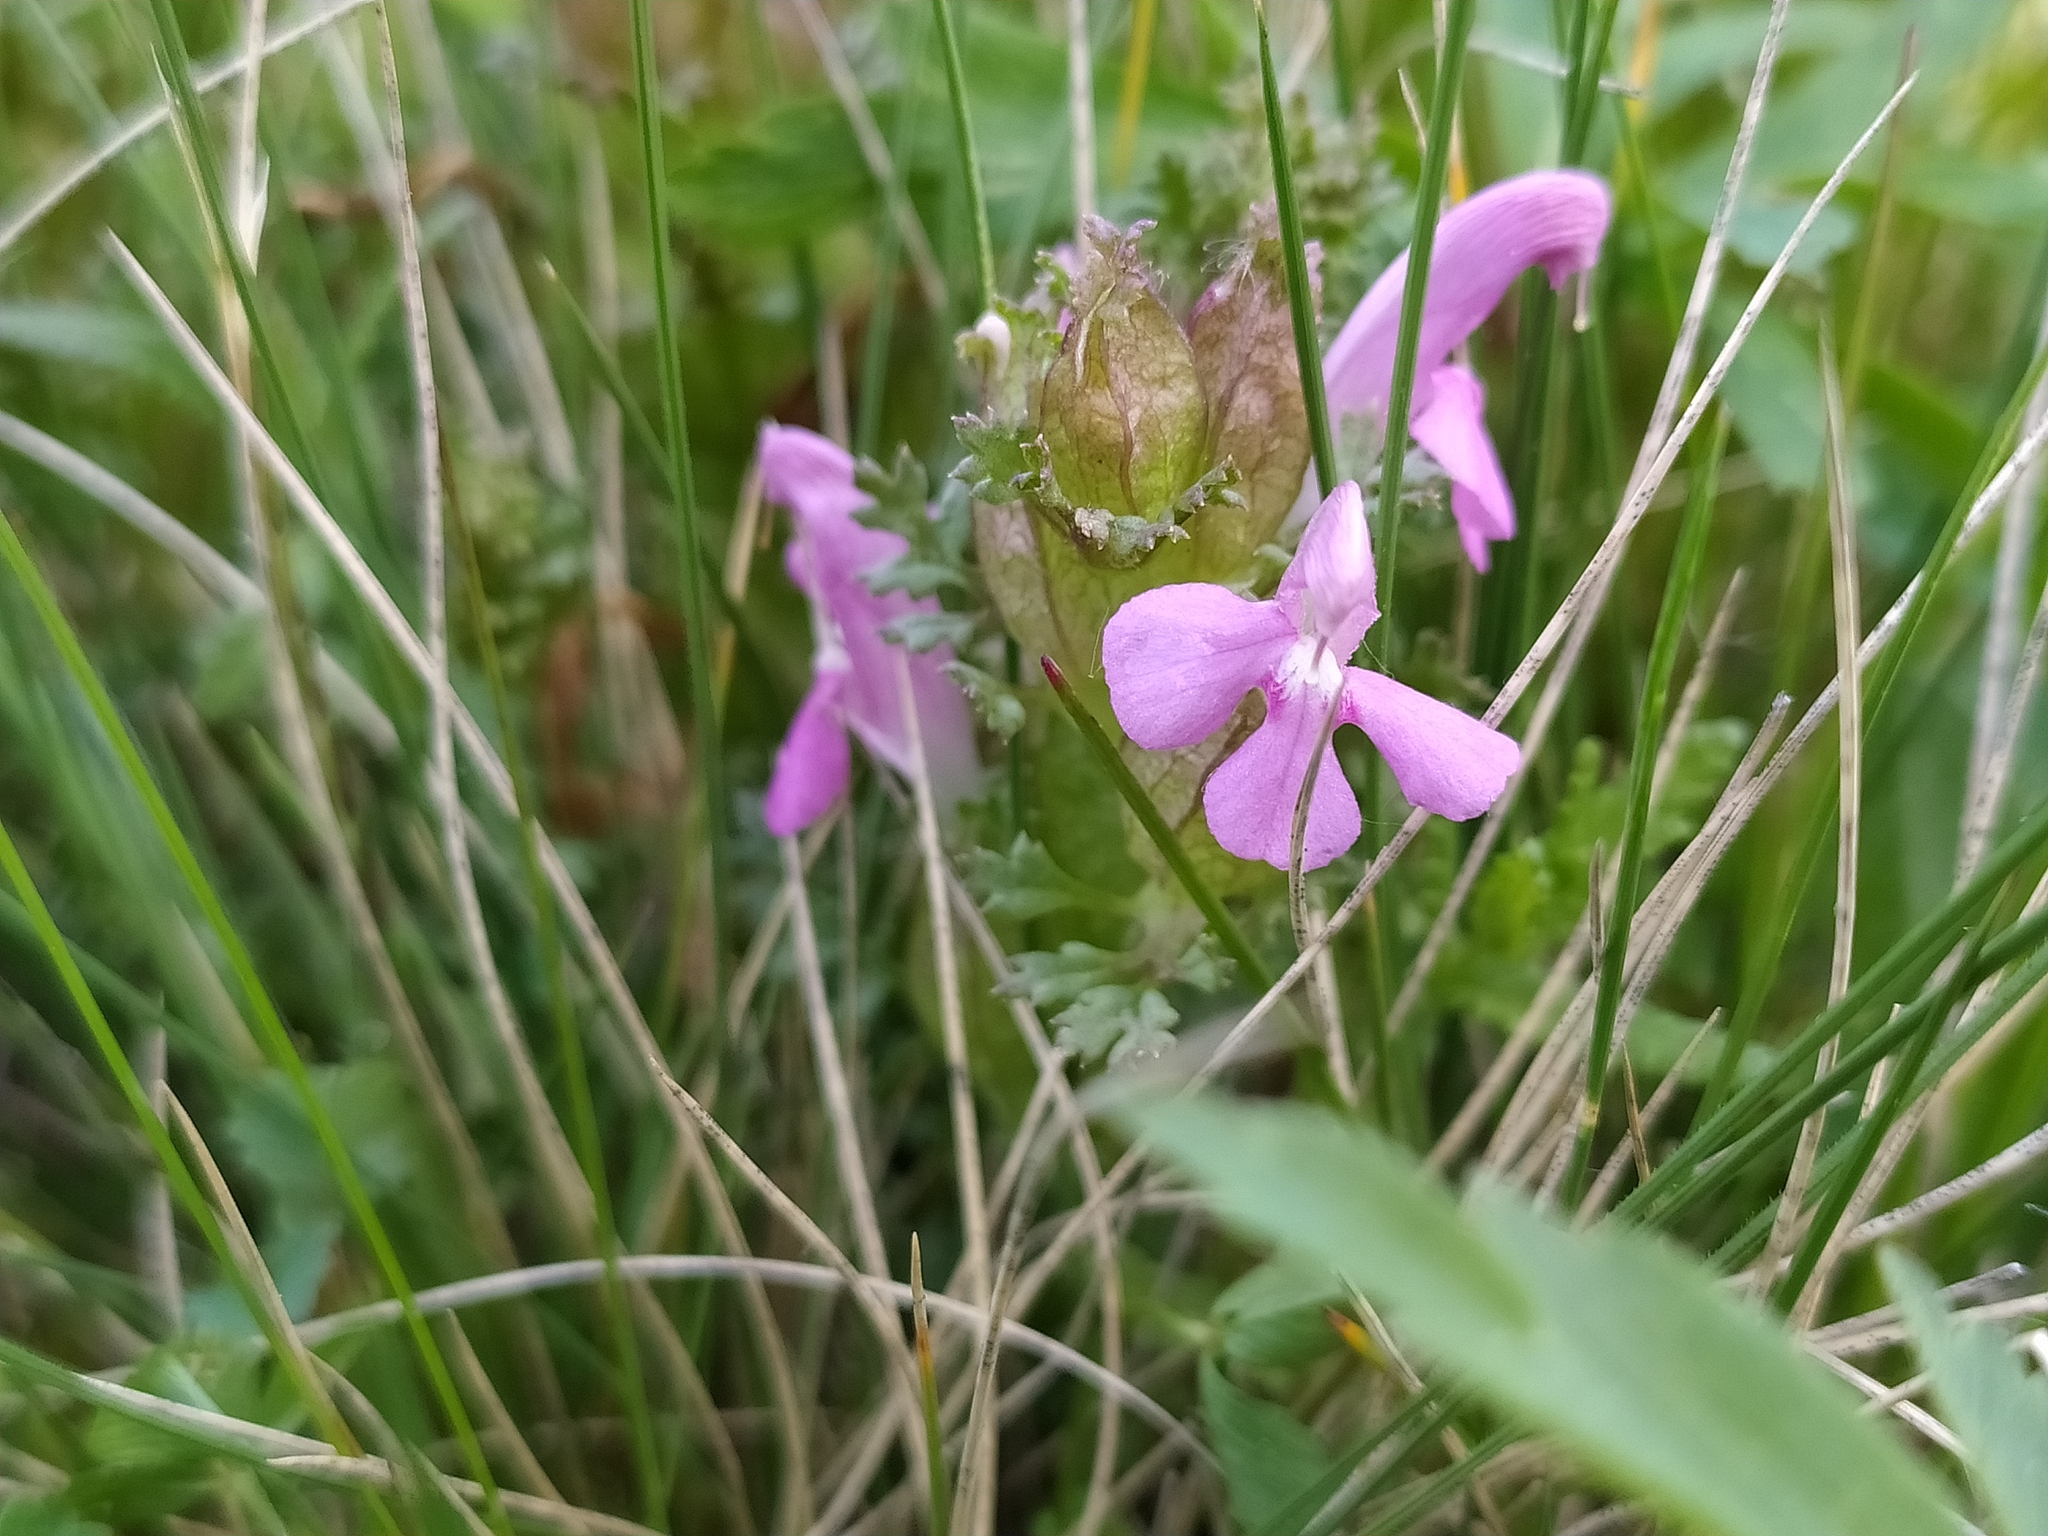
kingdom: Plantae
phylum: Tracheophyta
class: Magnoliopsida
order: Lamiales
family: Orobanchaceae
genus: Pedicularis
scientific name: Pedicularis sylvatica
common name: Lousewort
